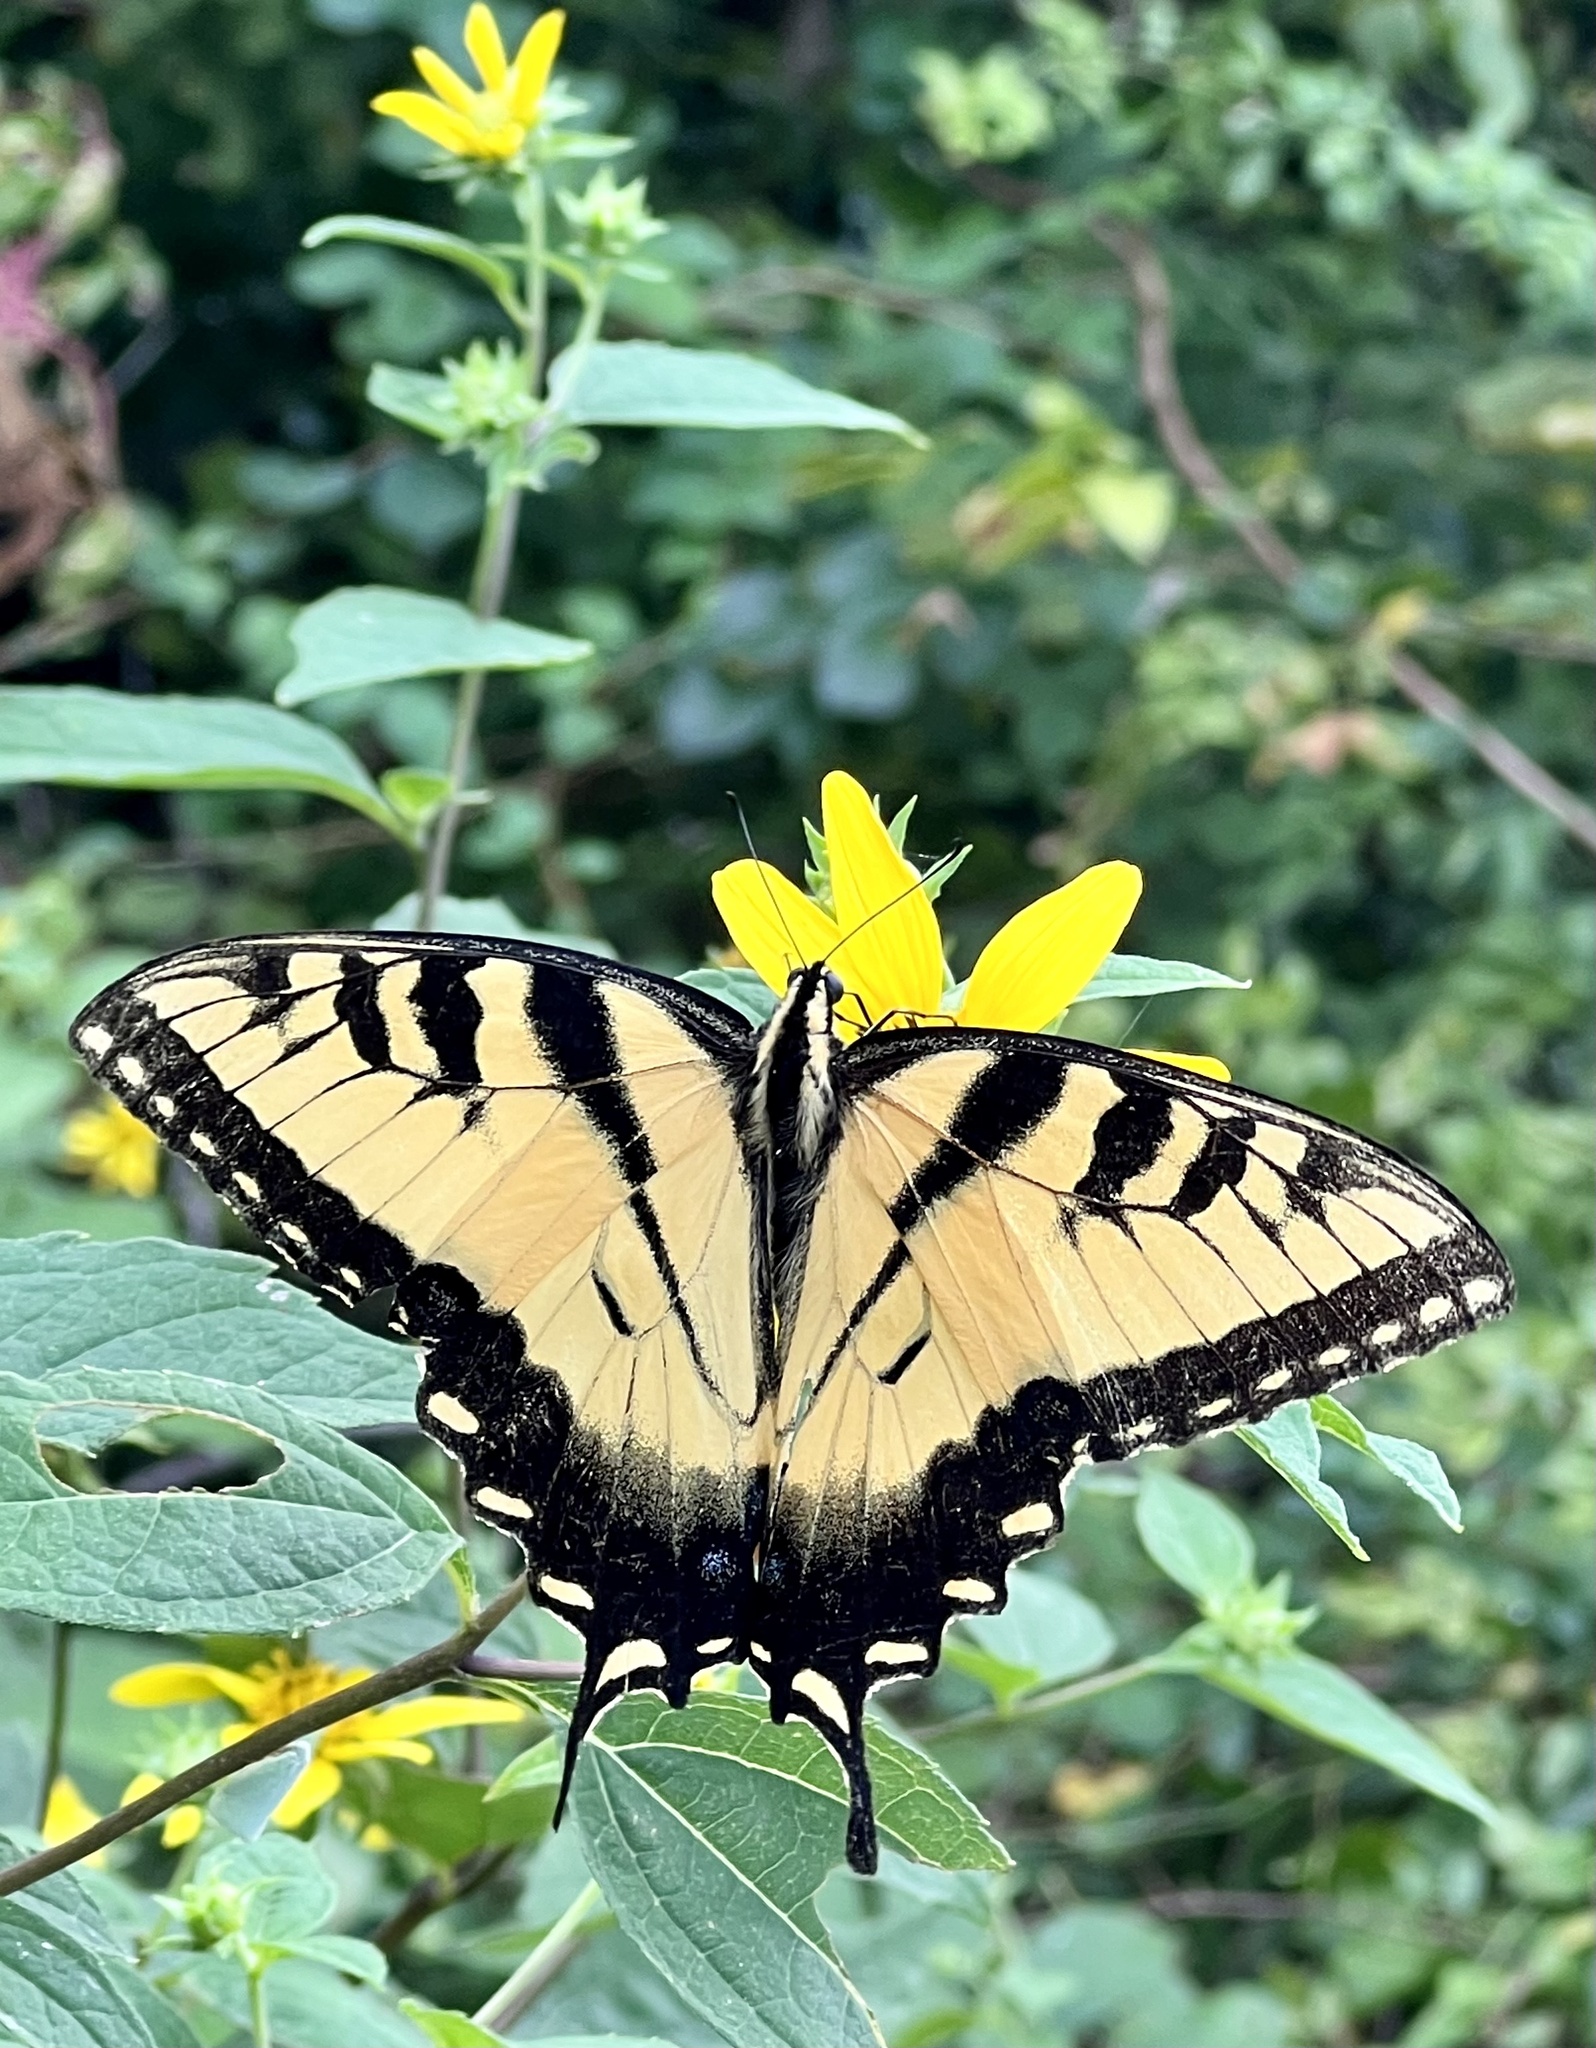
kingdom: Animalia
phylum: Arthropoda
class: Insecta
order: Lepidoptera
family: Papilionidae
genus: Papilio
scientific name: Papilio glaucus
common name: Tiger swallowtail
